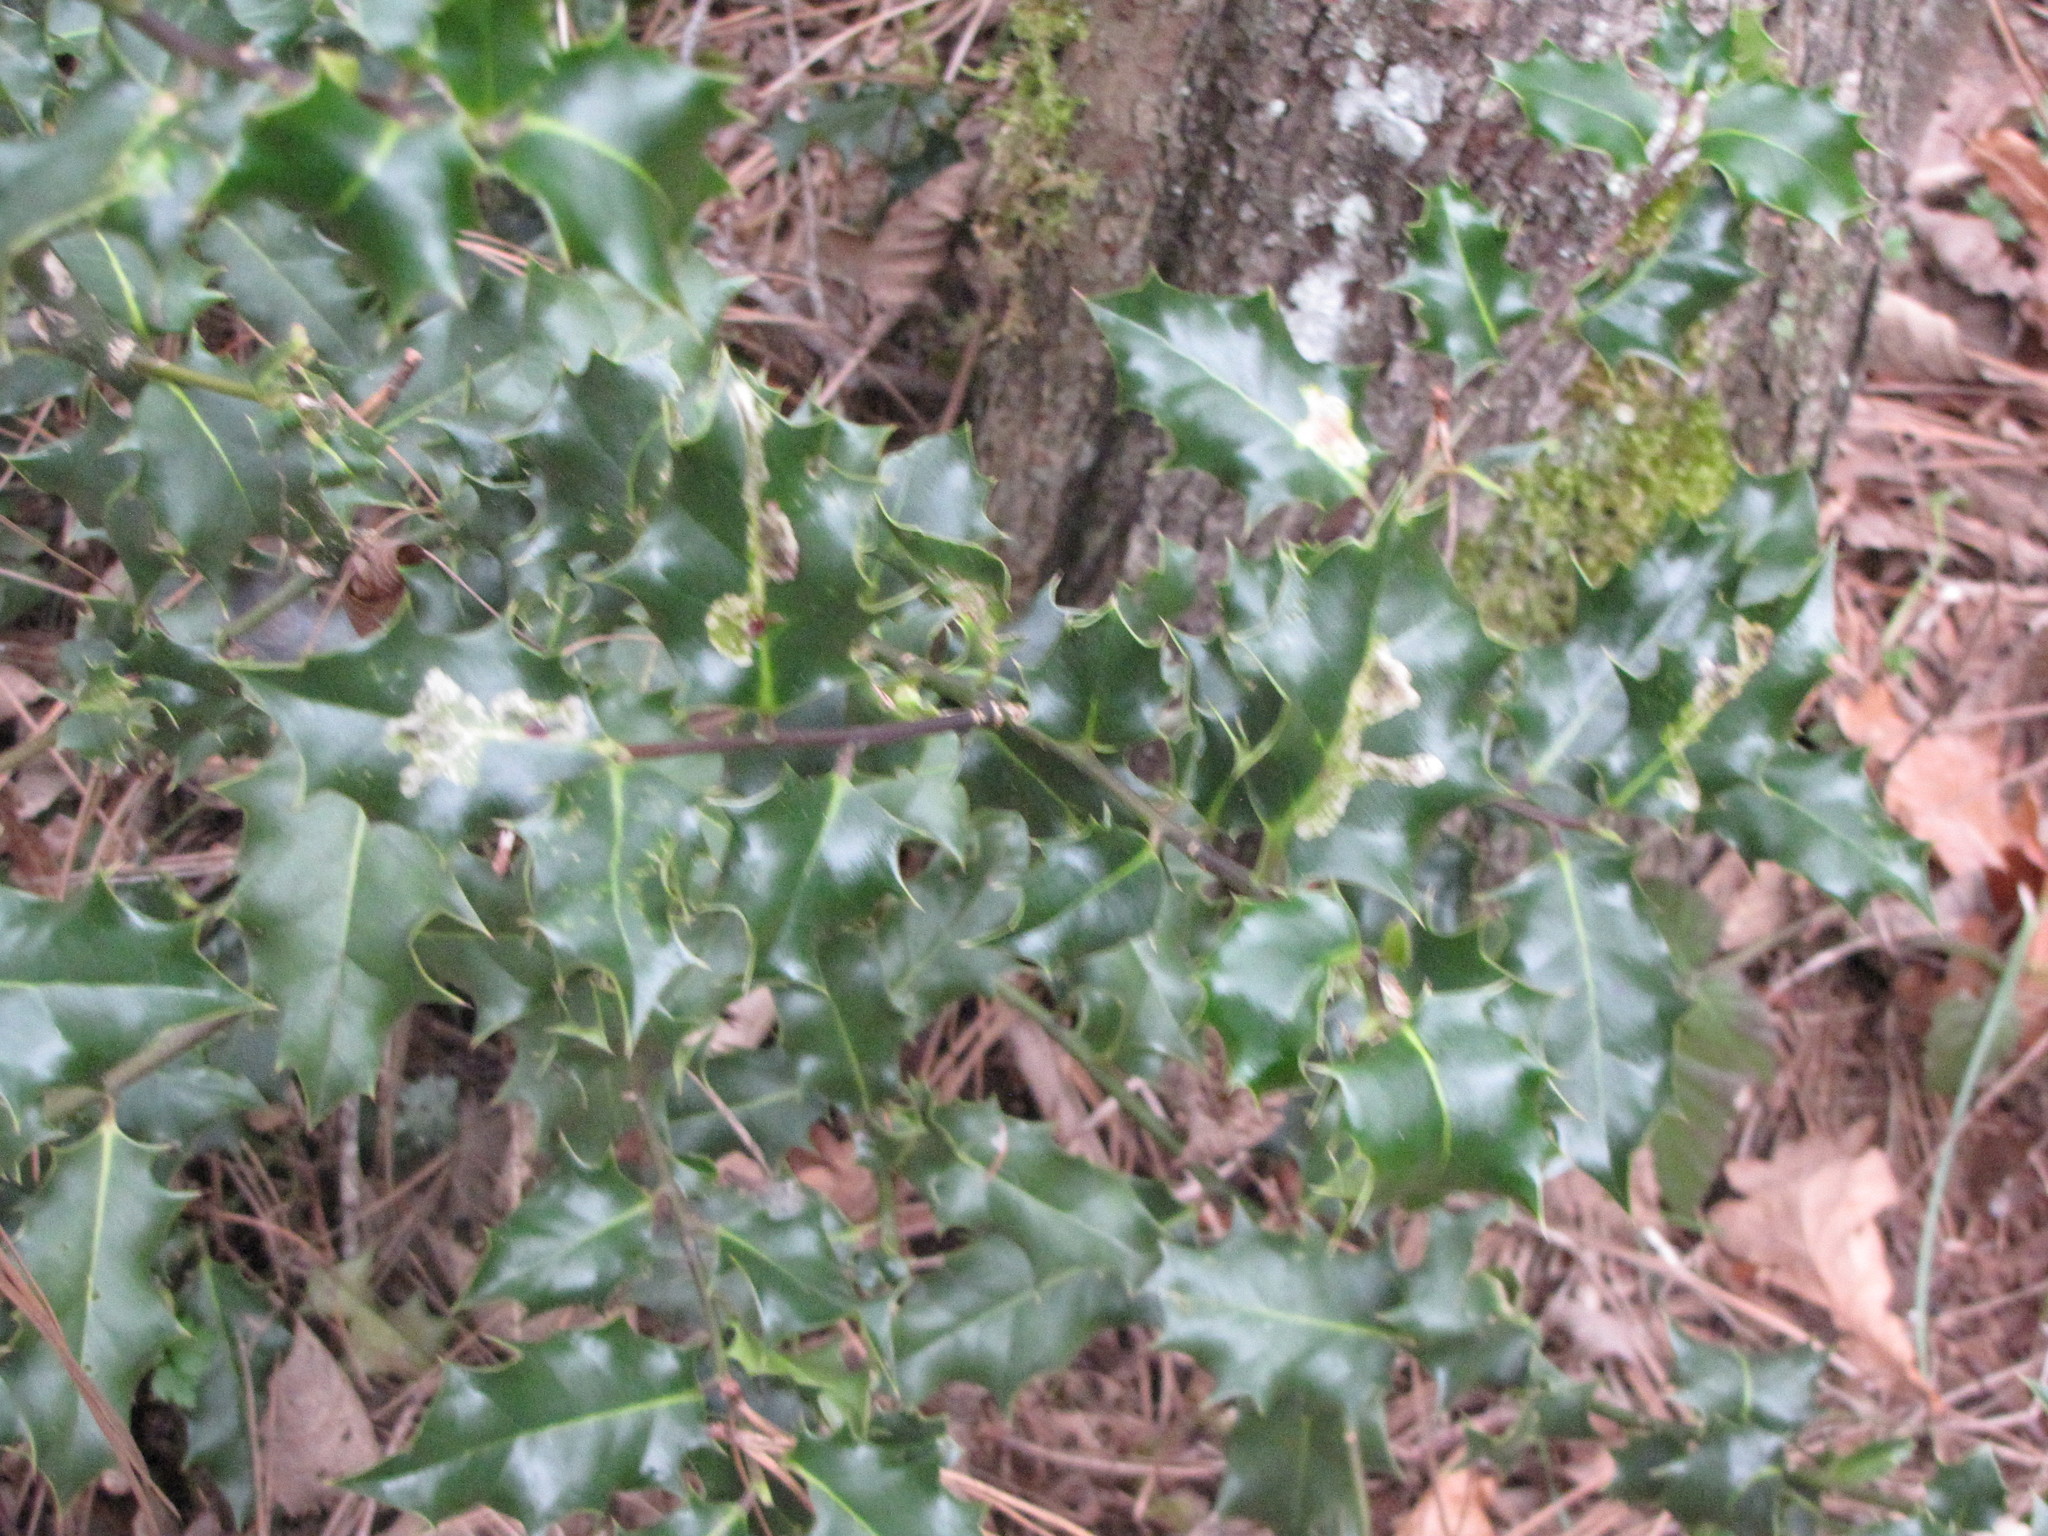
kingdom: Animalia
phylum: Arthropoda
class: Insecta
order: Diptera
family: Agromyzidae
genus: Phytomyza
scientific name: Phytomyza ilicis
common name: Holly leafminer
